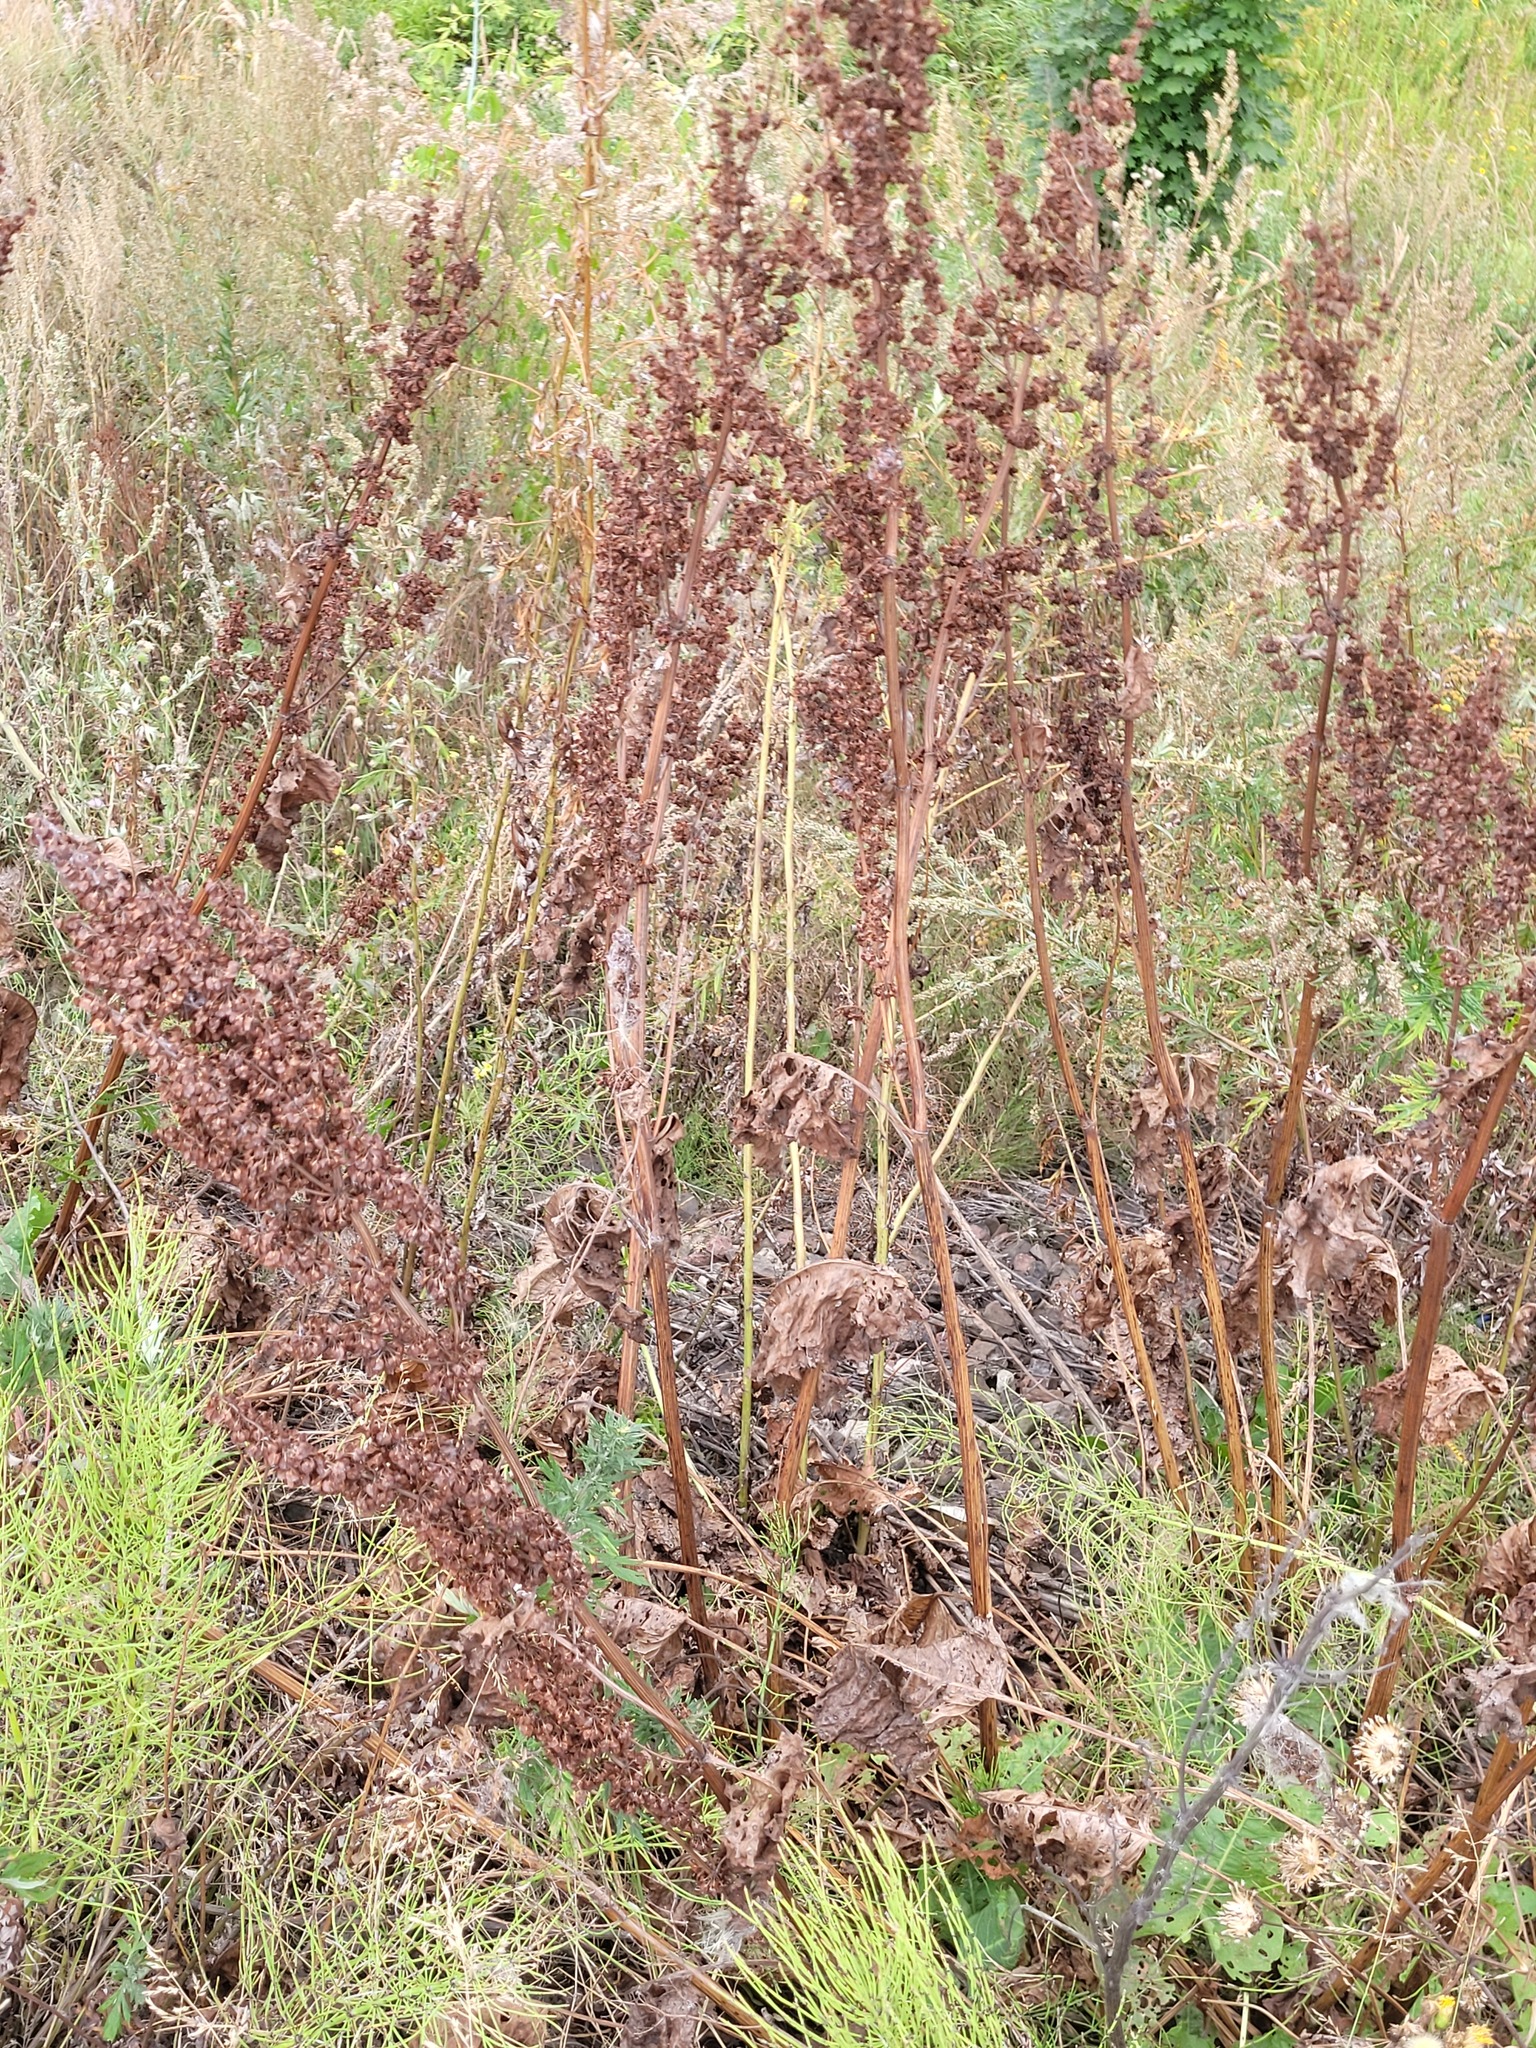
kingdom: Plantae
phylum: Tracheophyta
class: Magnoliopsida
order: Caryophyllales
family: Polygonaceae
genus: Rumex
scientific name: Rumex confertus
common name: Russian dock
